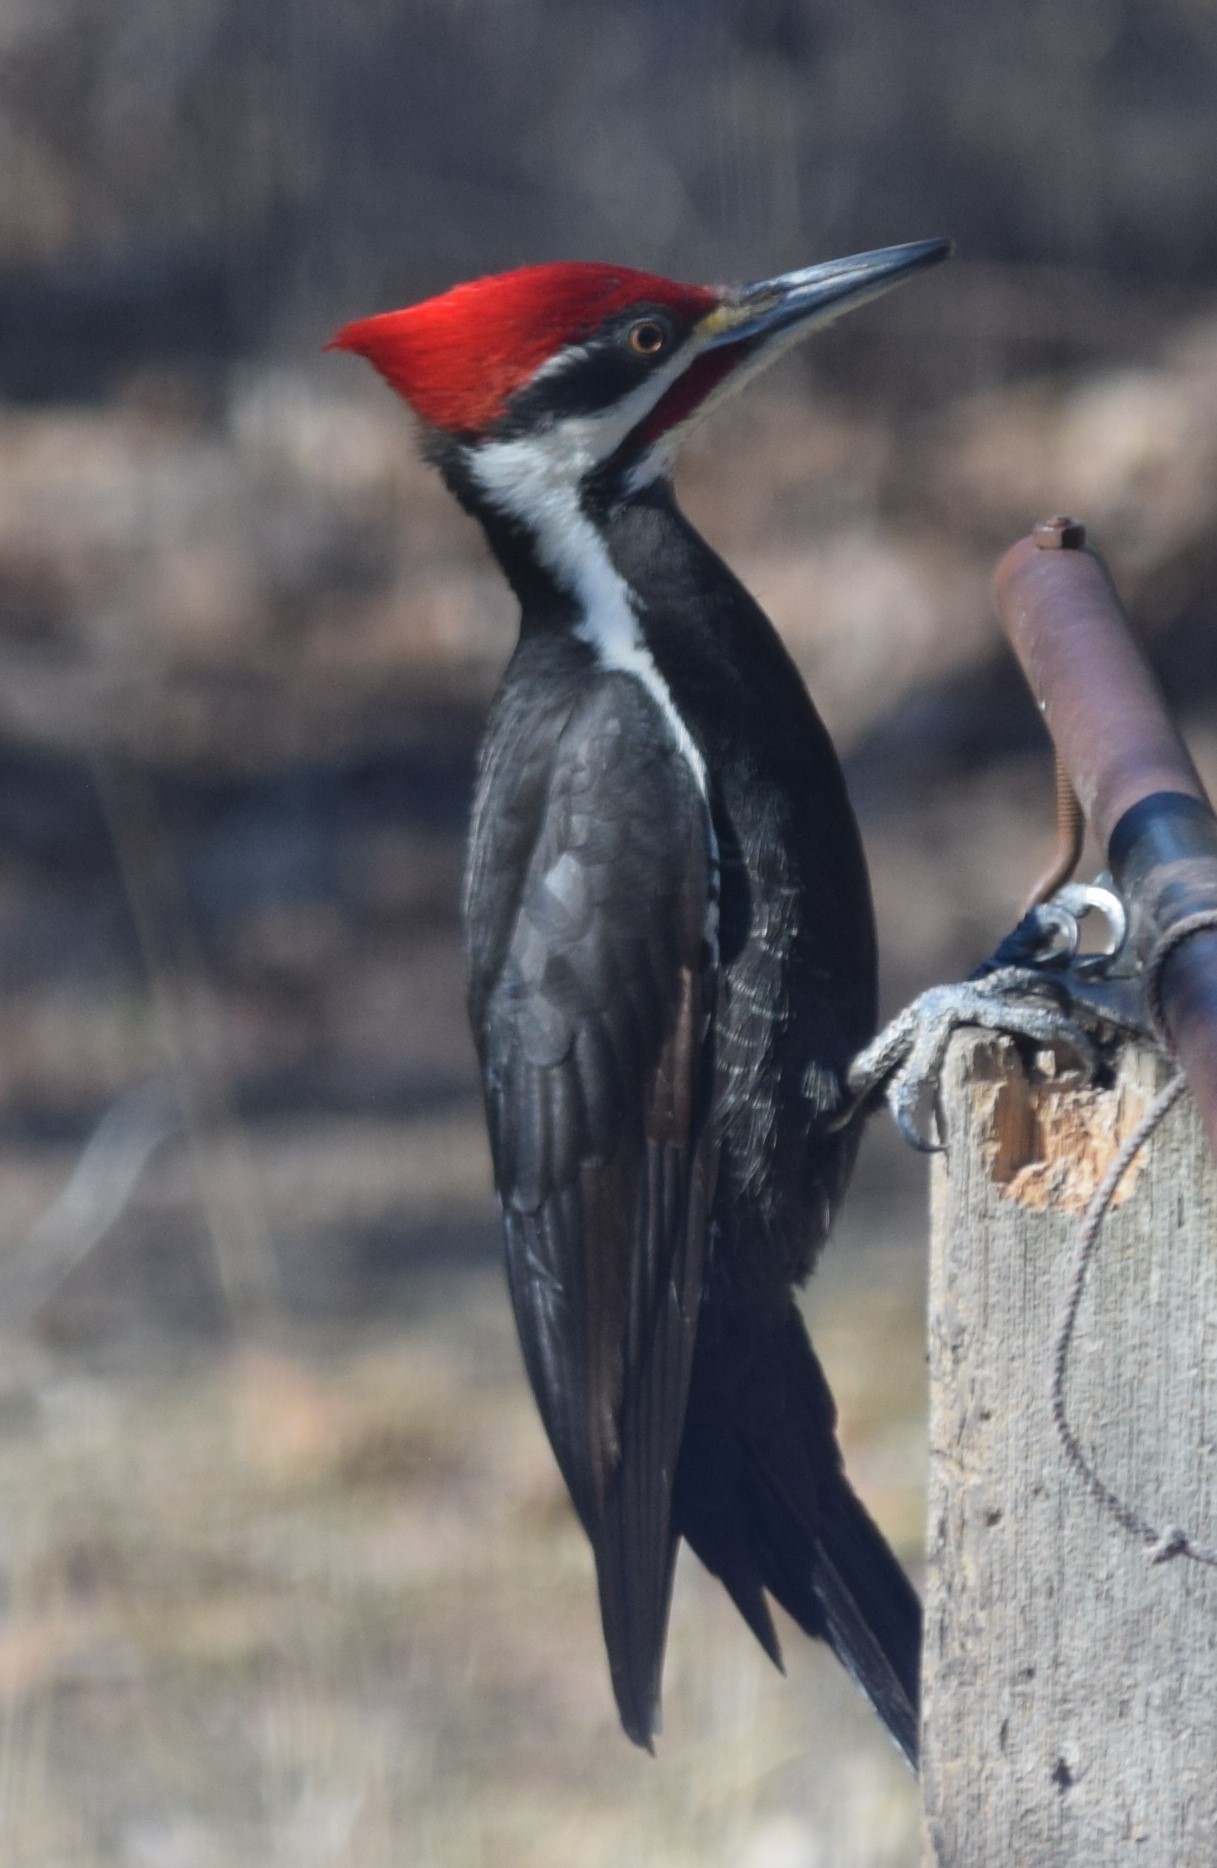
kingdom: Animalia
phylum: Chordata
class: Aves
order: Piciformes
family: Picidae
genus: Dryocopus
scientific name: Dryocopus pileatus
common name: Pileated woodpecker
